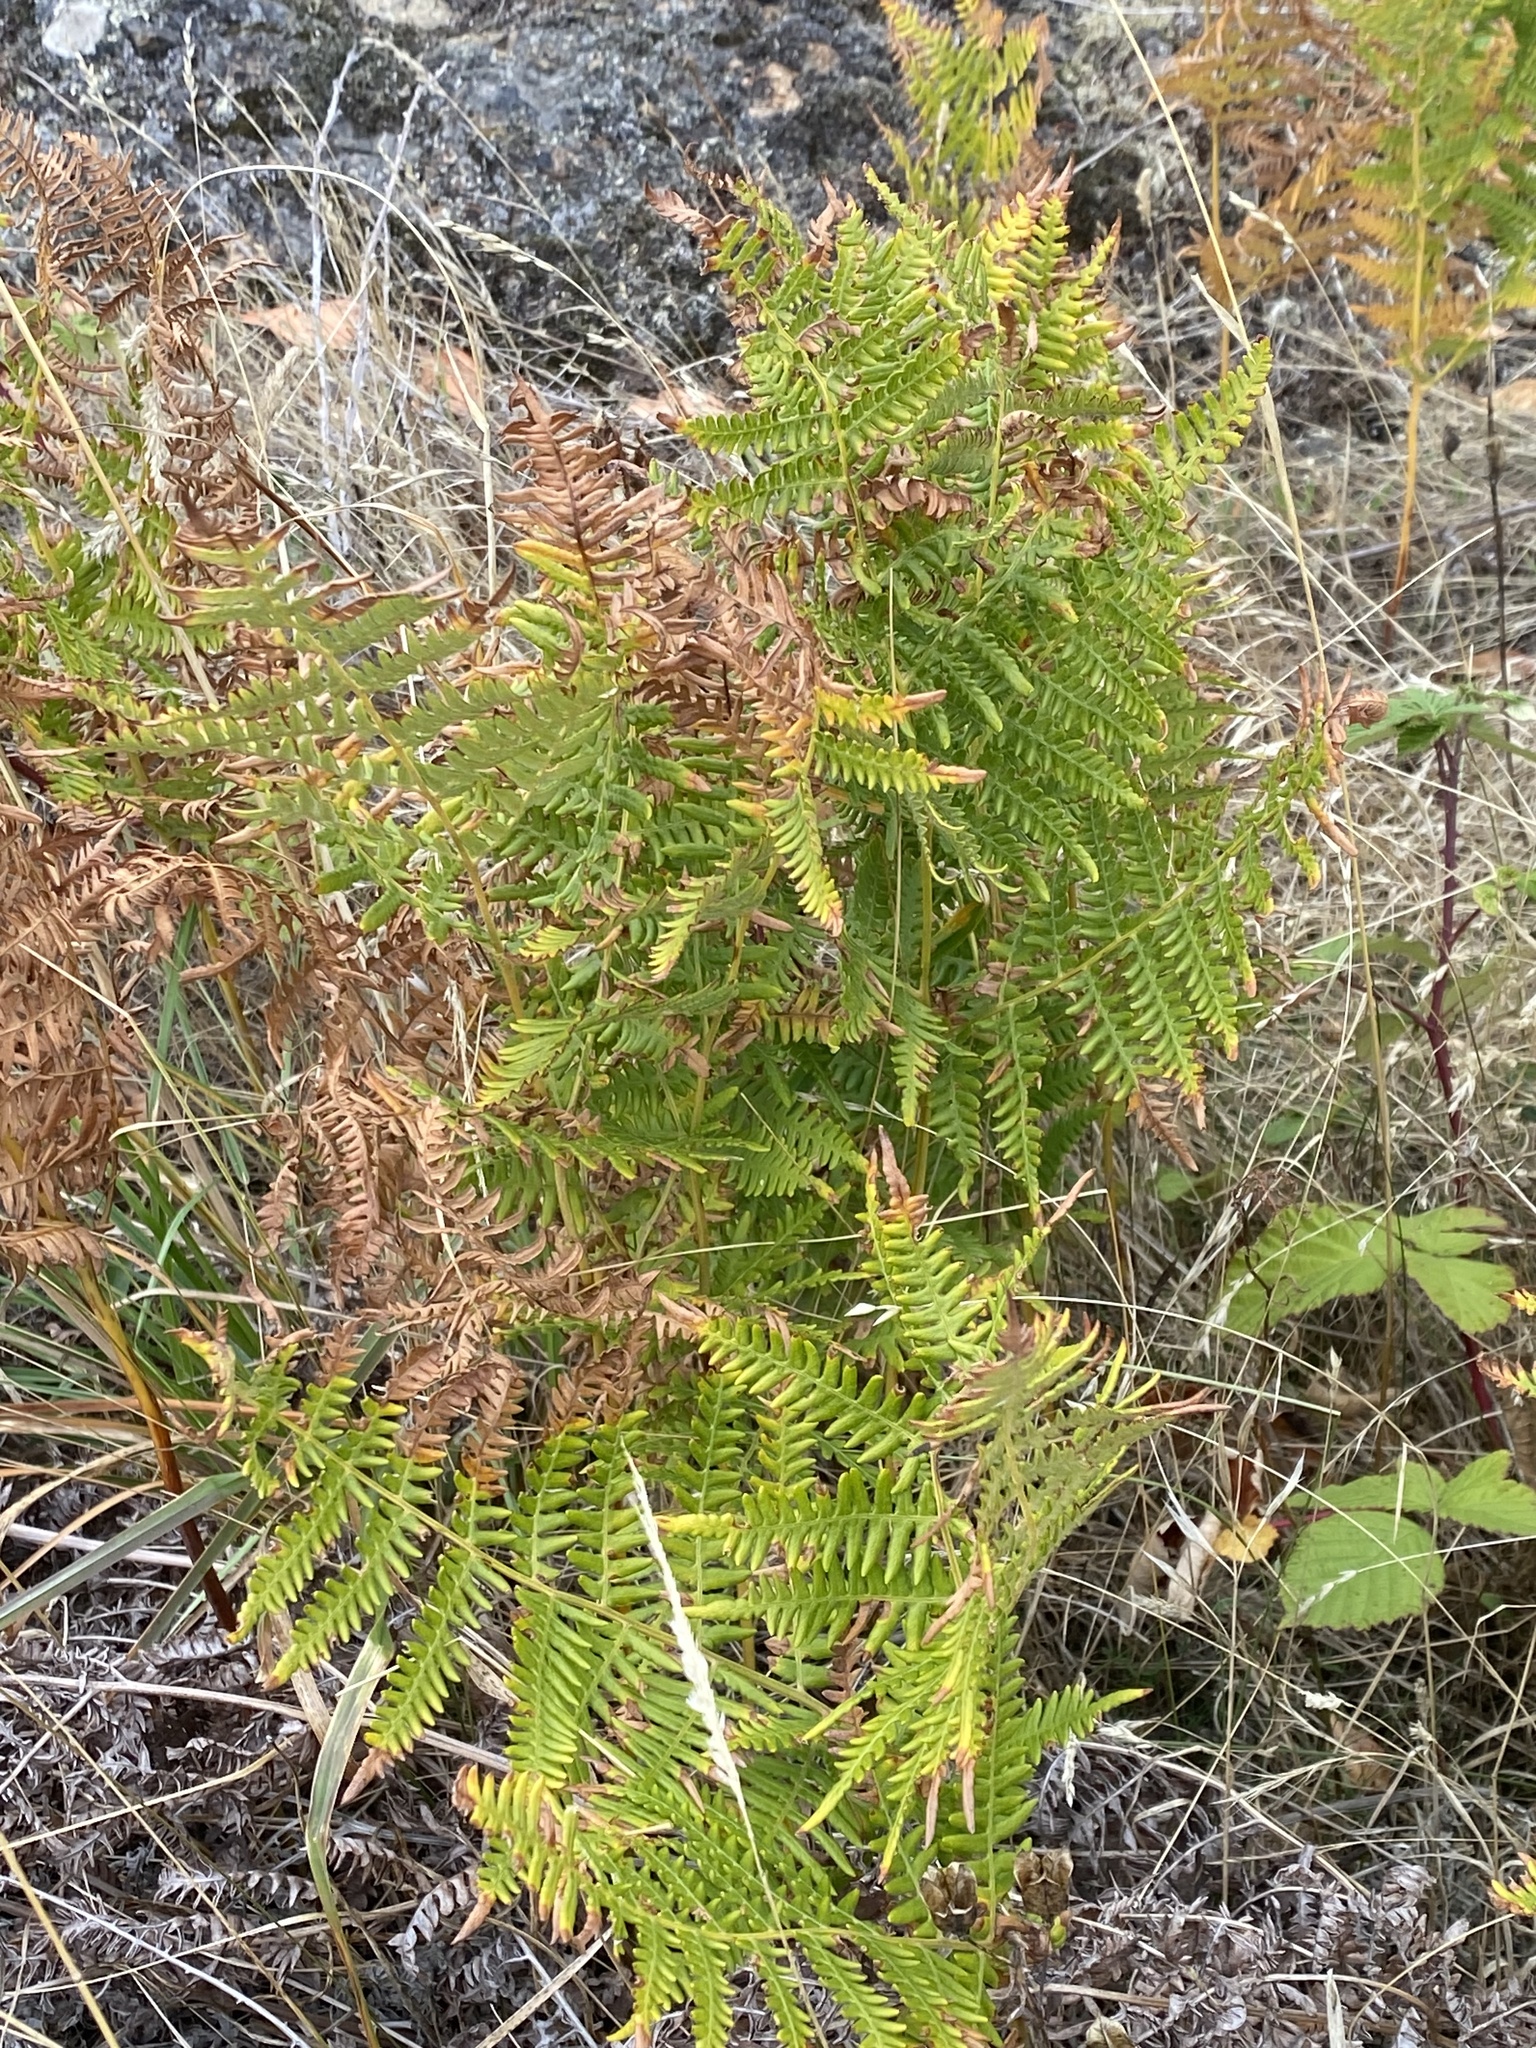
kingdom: Plantae
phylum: Tracheophyta
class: Polypodiopsida
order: Polypodiales
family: Dennstaedtiaceae
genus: Pteridium
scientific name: Pteridium aquilinum
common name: Bracken
